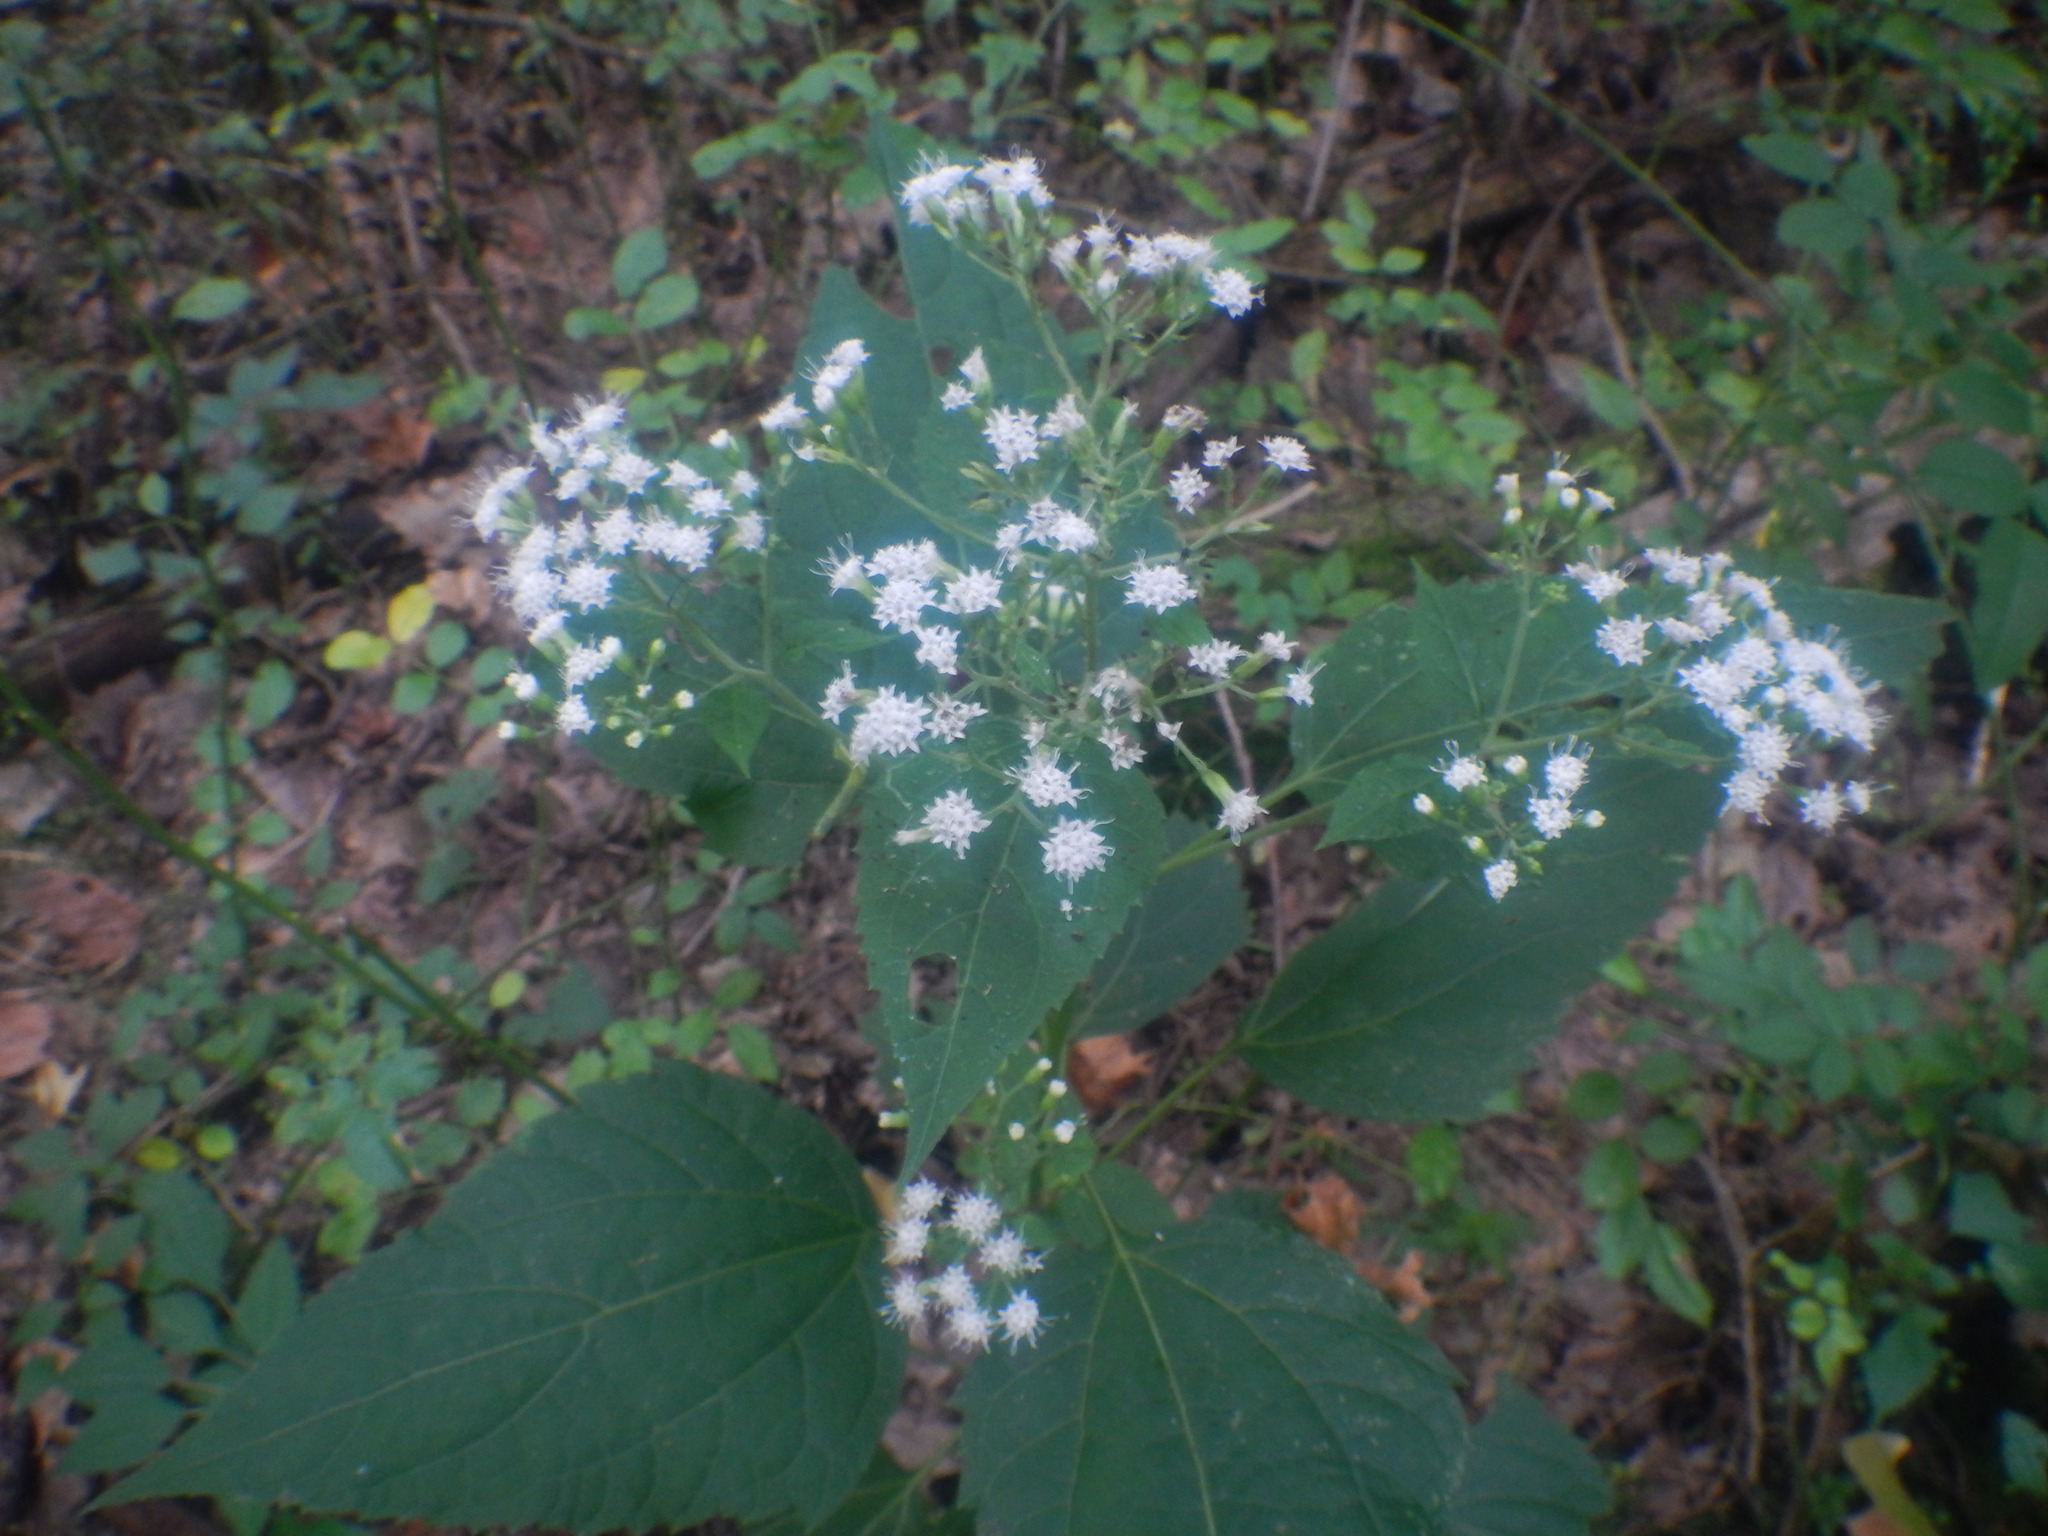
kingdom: Plantae
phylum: Tracheophyta
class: Magnoliopsida
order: Asterales
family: Asteraceae
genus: Ageratina
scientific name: Ageratina altissima
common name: White snakeroot
